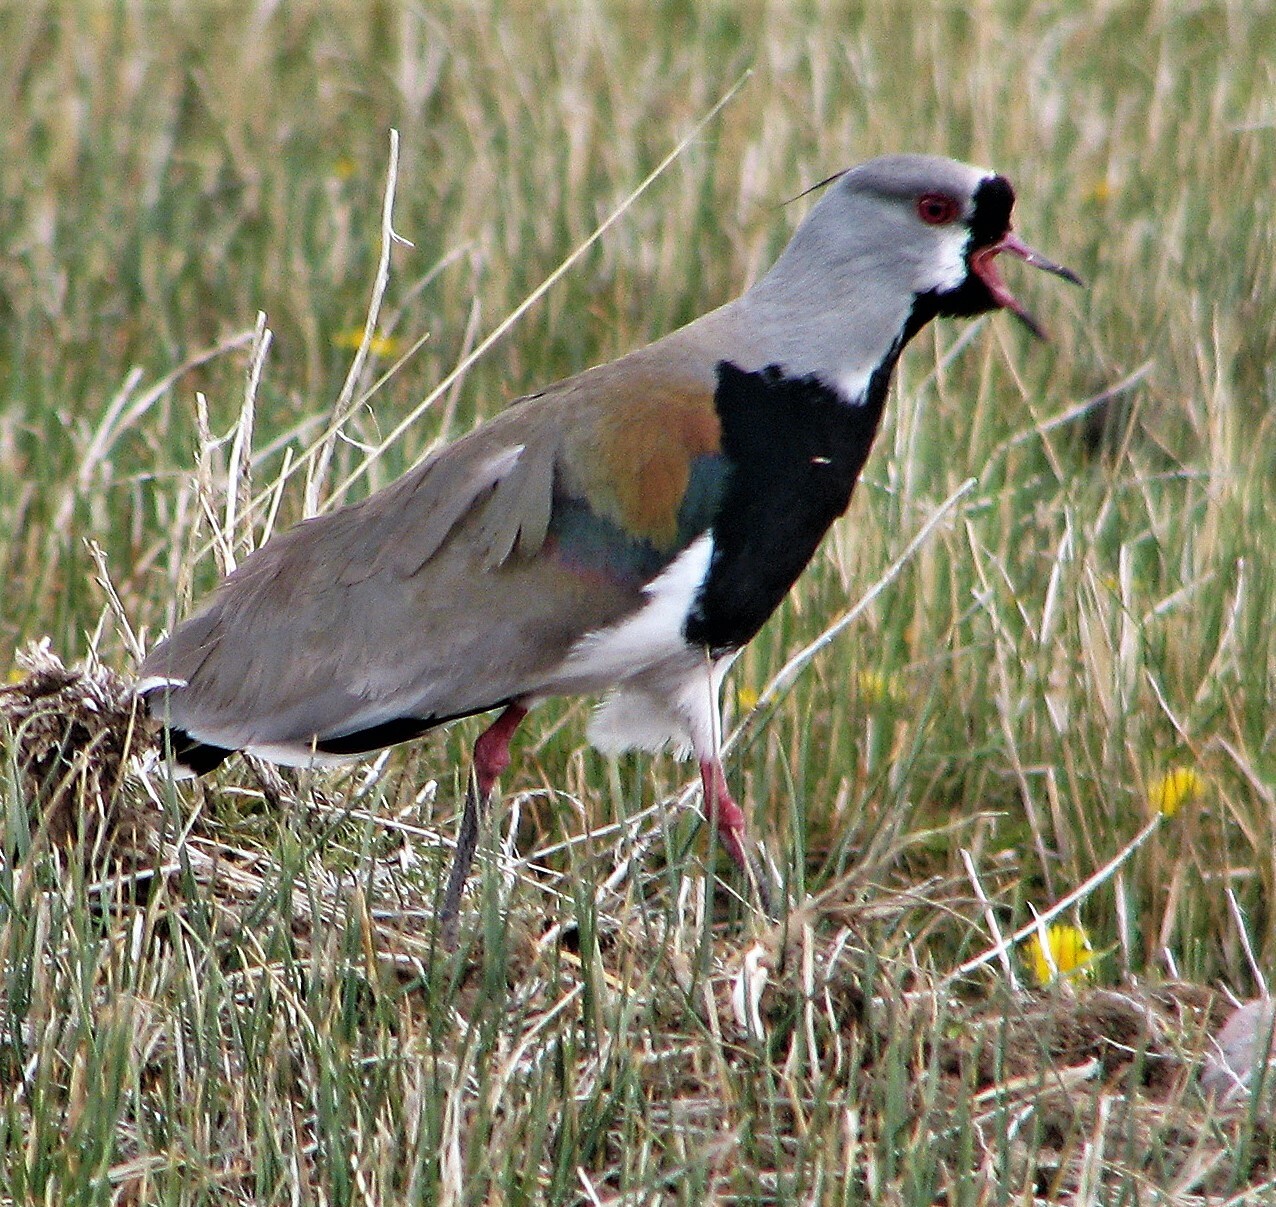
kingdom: Animalia
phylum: Chordata
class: Aves
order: Charadriiformes
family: Charadriidae
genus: Vanellus
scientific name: Vanellus chilensis
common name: Southern lapwing
